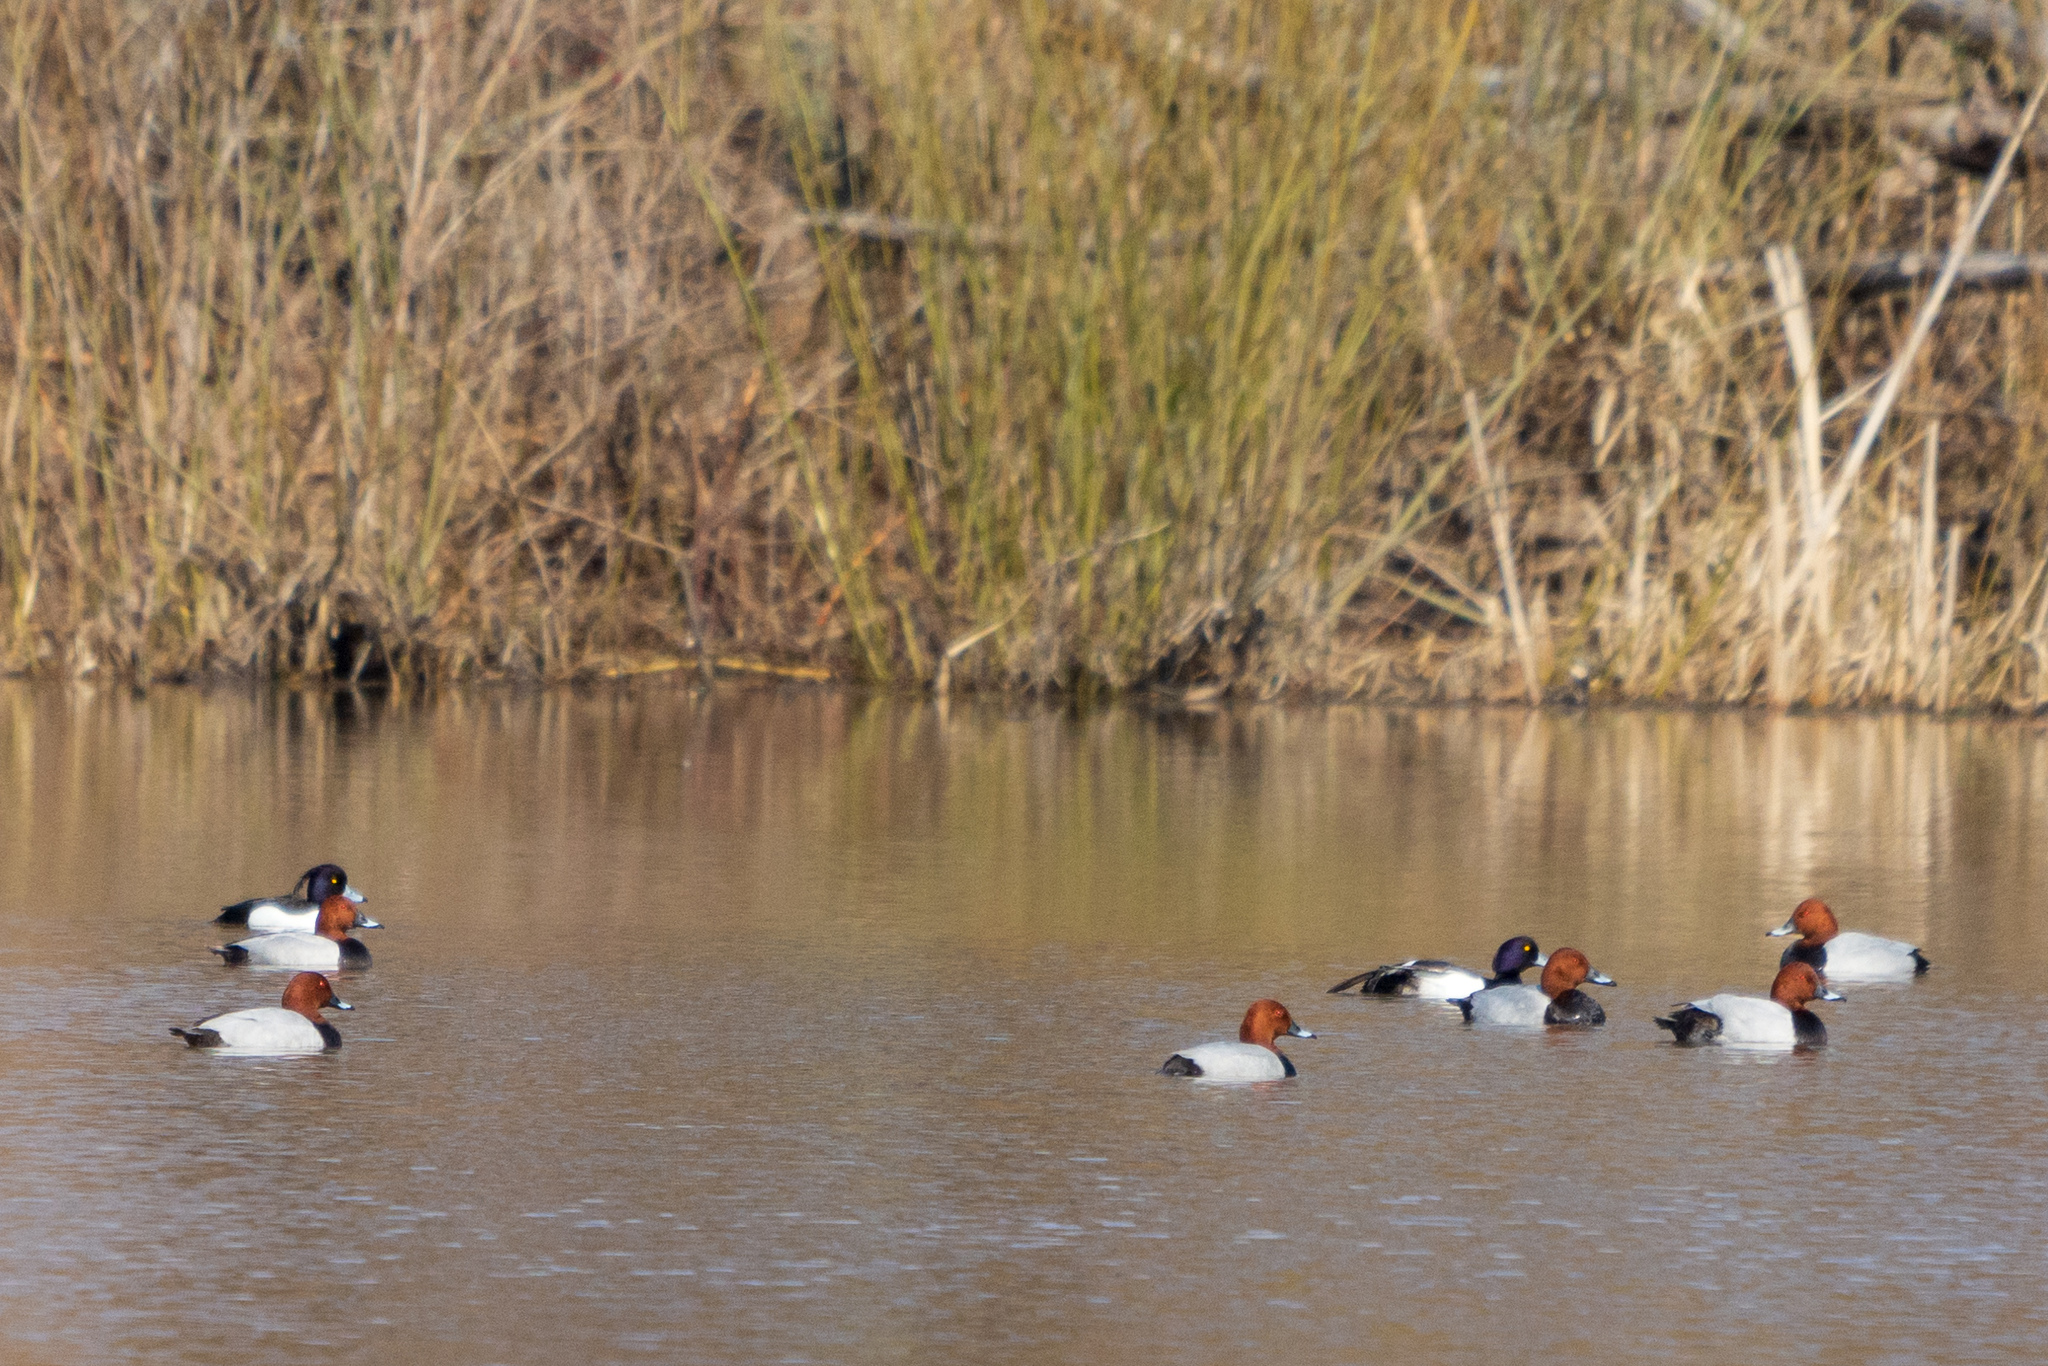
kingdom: Animalia
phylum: Chordata
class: Aves
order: Anseriformes
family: Anatidae
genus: Aythya
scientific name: Aythya fuligula
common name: Tufted duck
